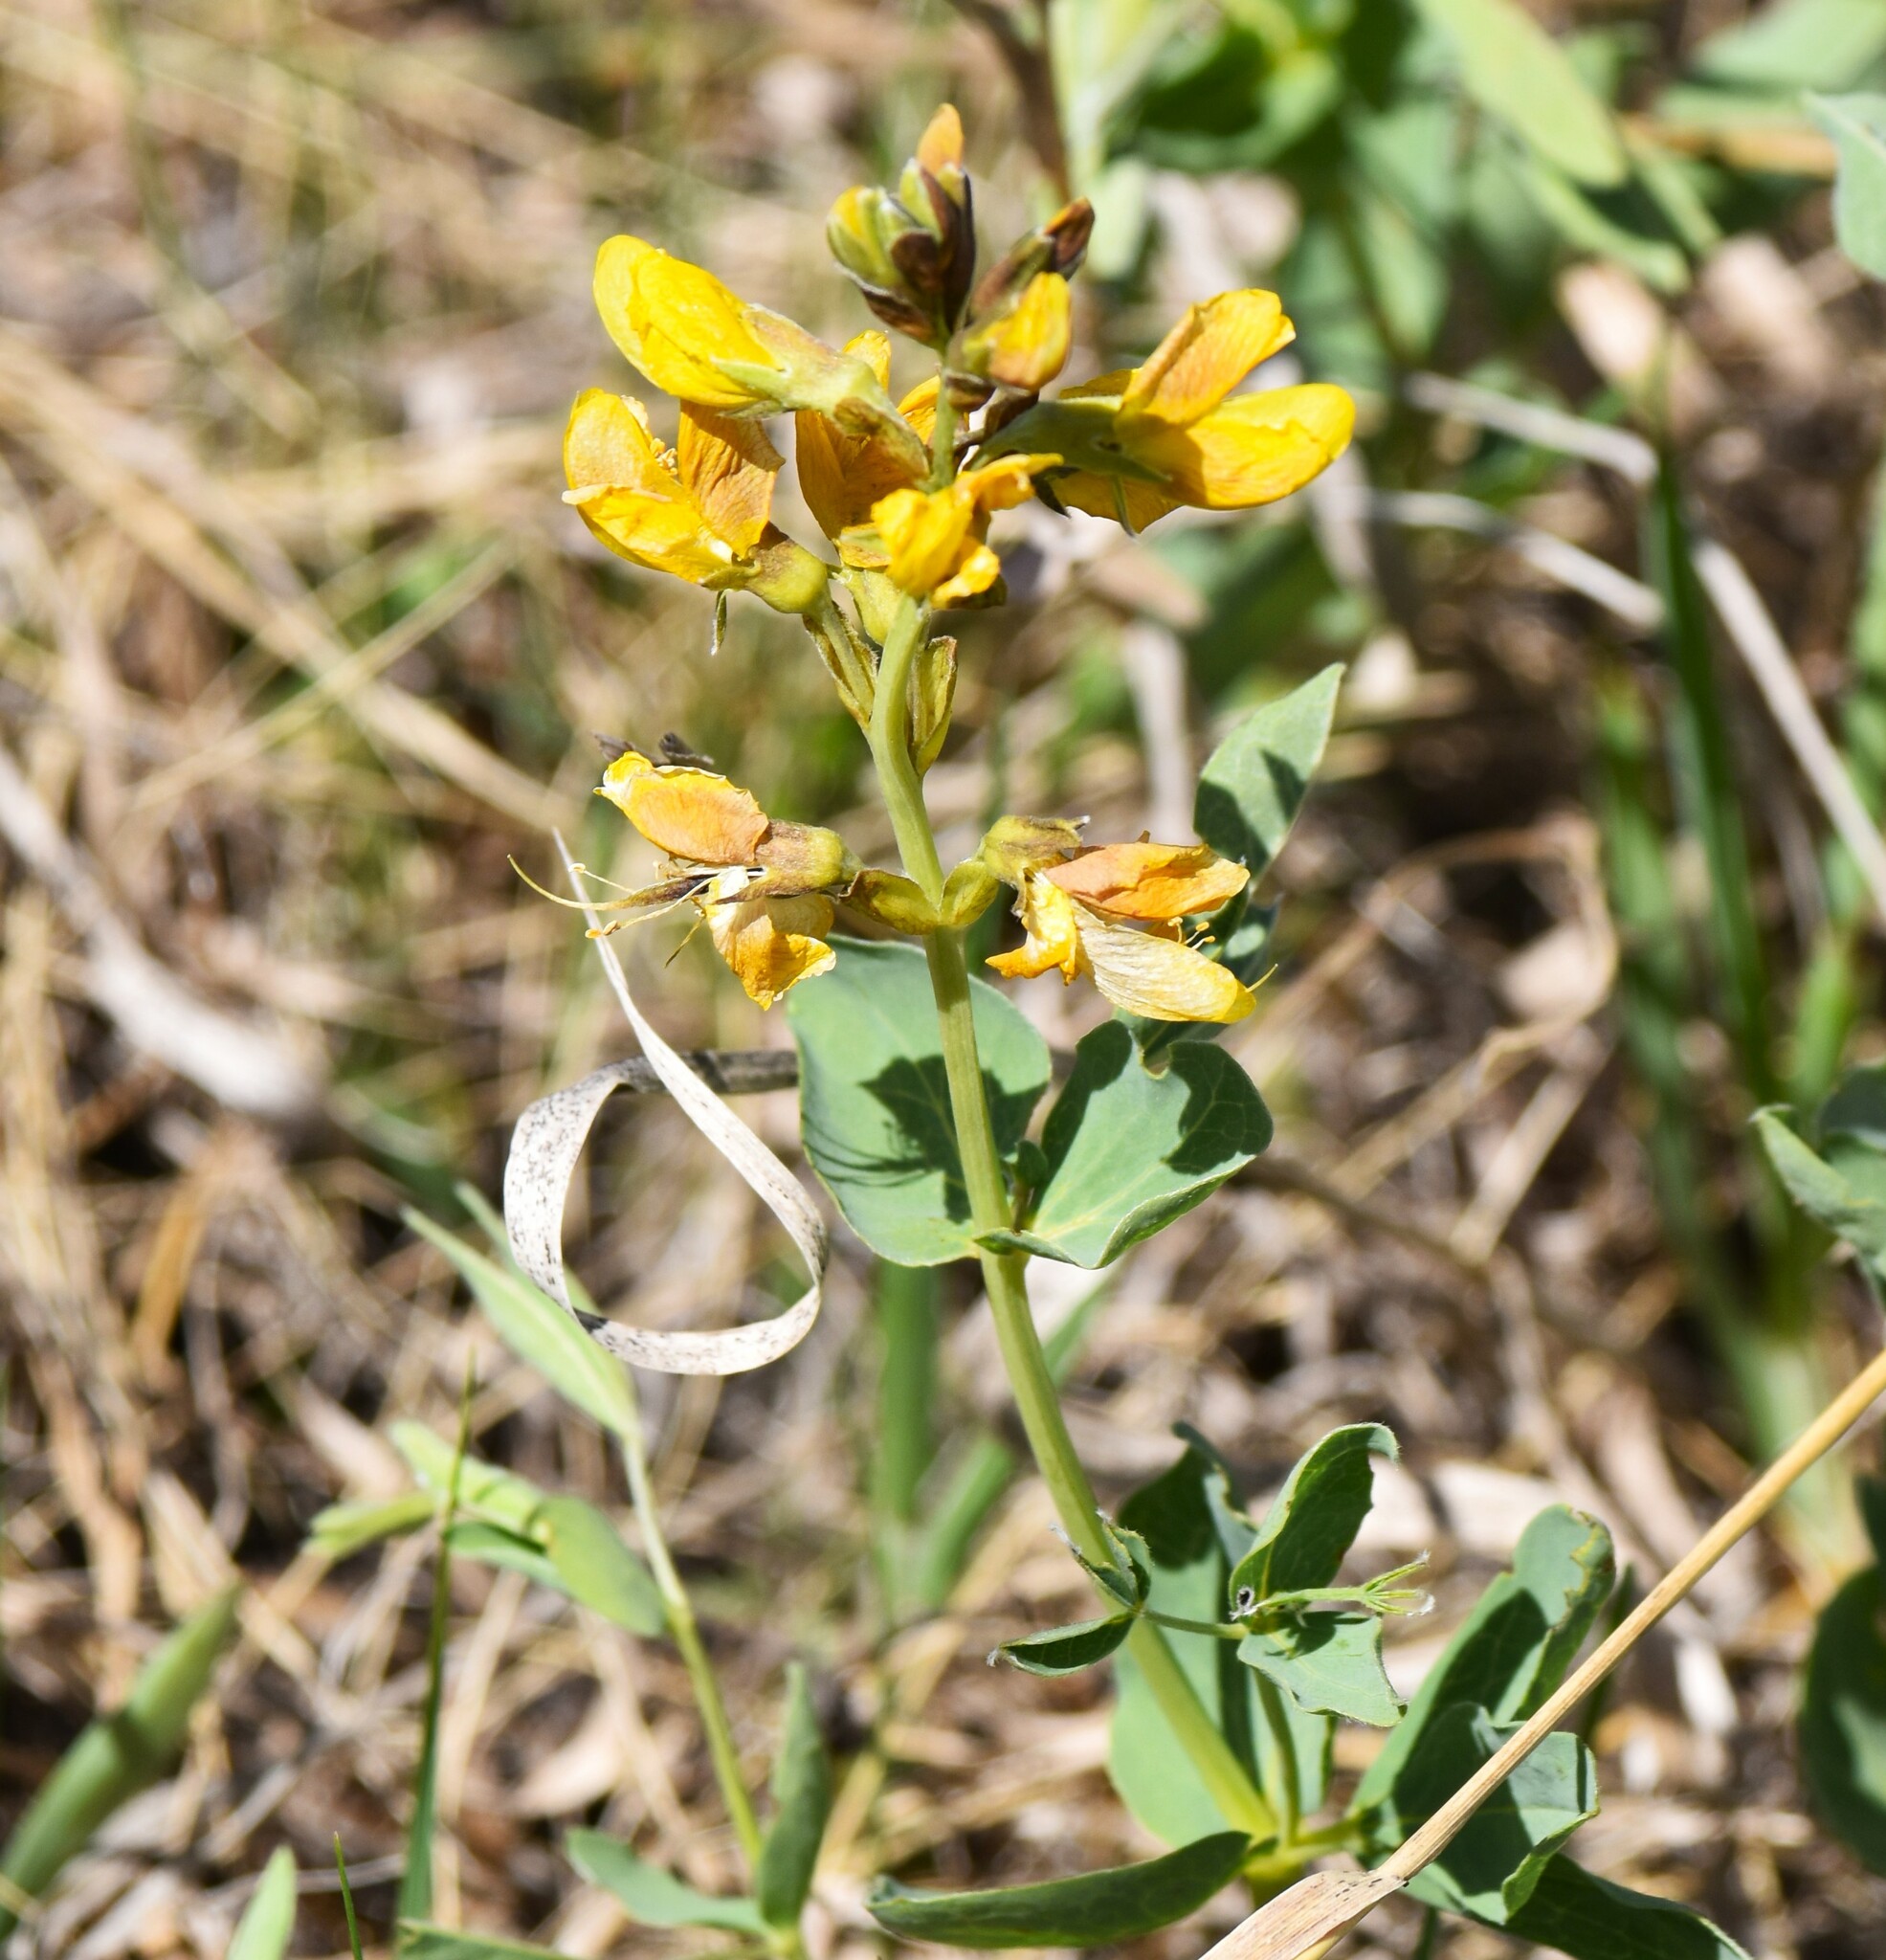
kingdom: Plantae
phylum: Tracheophyta
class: Magnoliopsida
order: Fabales
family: Fabaceae
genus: Thermopsis
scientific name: Thermopsis rhombifolia
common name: Circle-pod-pea
